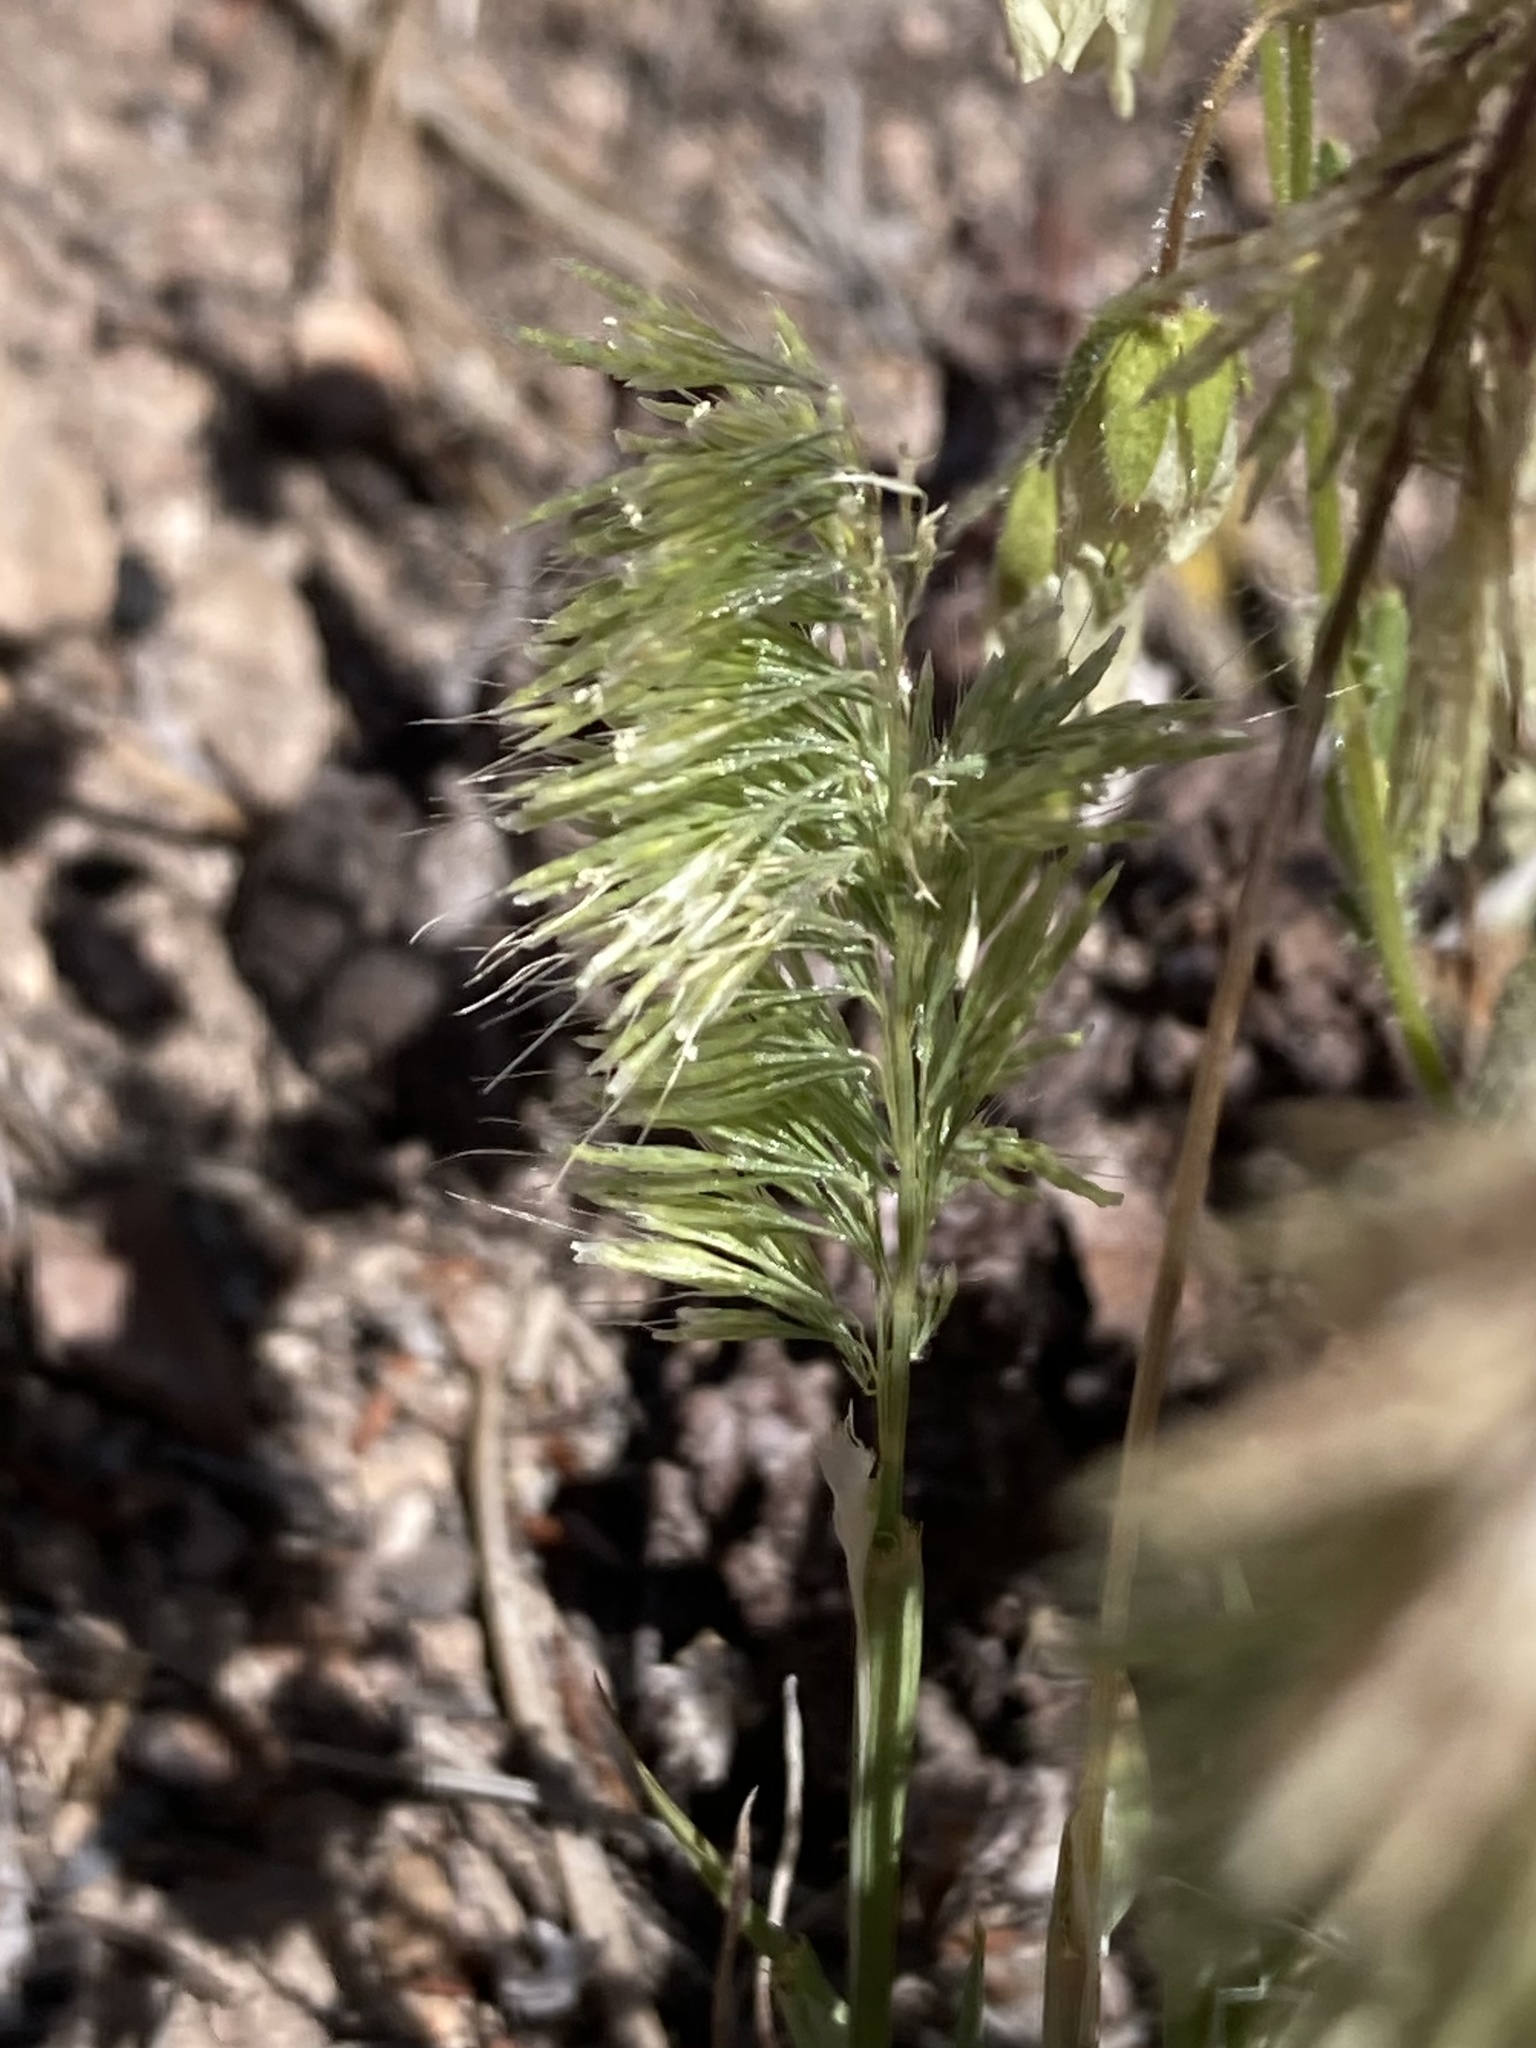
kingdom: Plantae
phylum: Tracheophyta
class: Liliopsida
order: Poales
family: Poaceae
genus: Lamarckia
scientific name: Lamarckia aurea
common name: Golden dog's-tail
